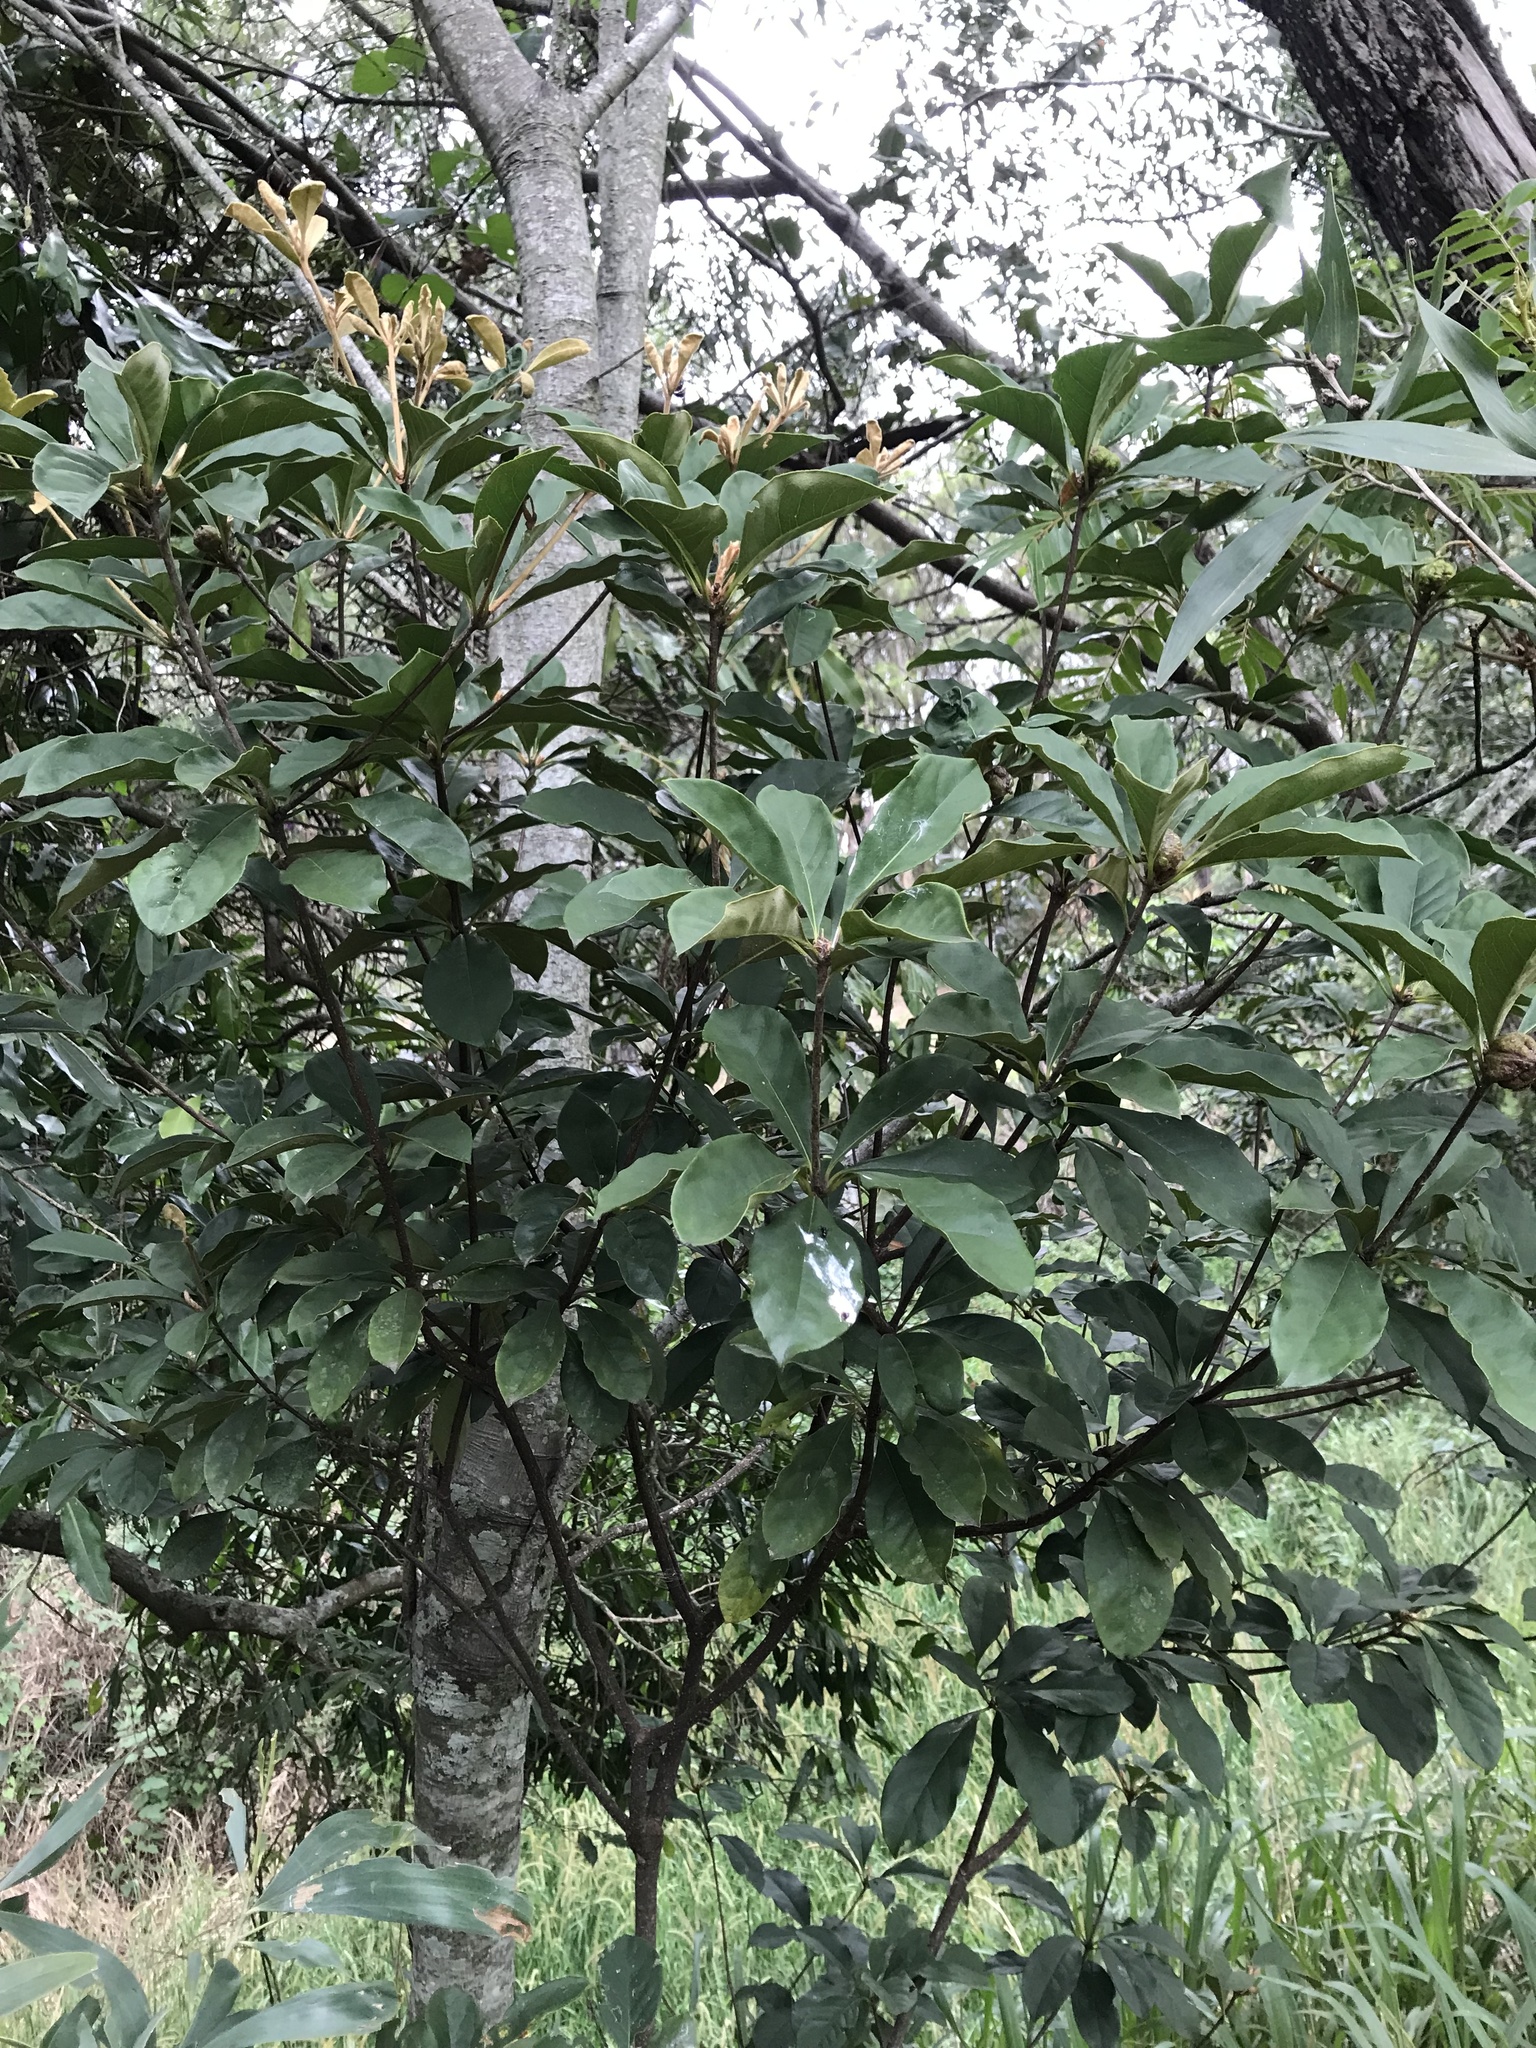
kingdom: Plantae
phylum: Tracheophyta
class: Magnoliopsida
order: Apiales
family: Pittosporaceae
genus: Pittosporum
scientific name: Pittosporum revolutum
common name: Brisbane-laurel
